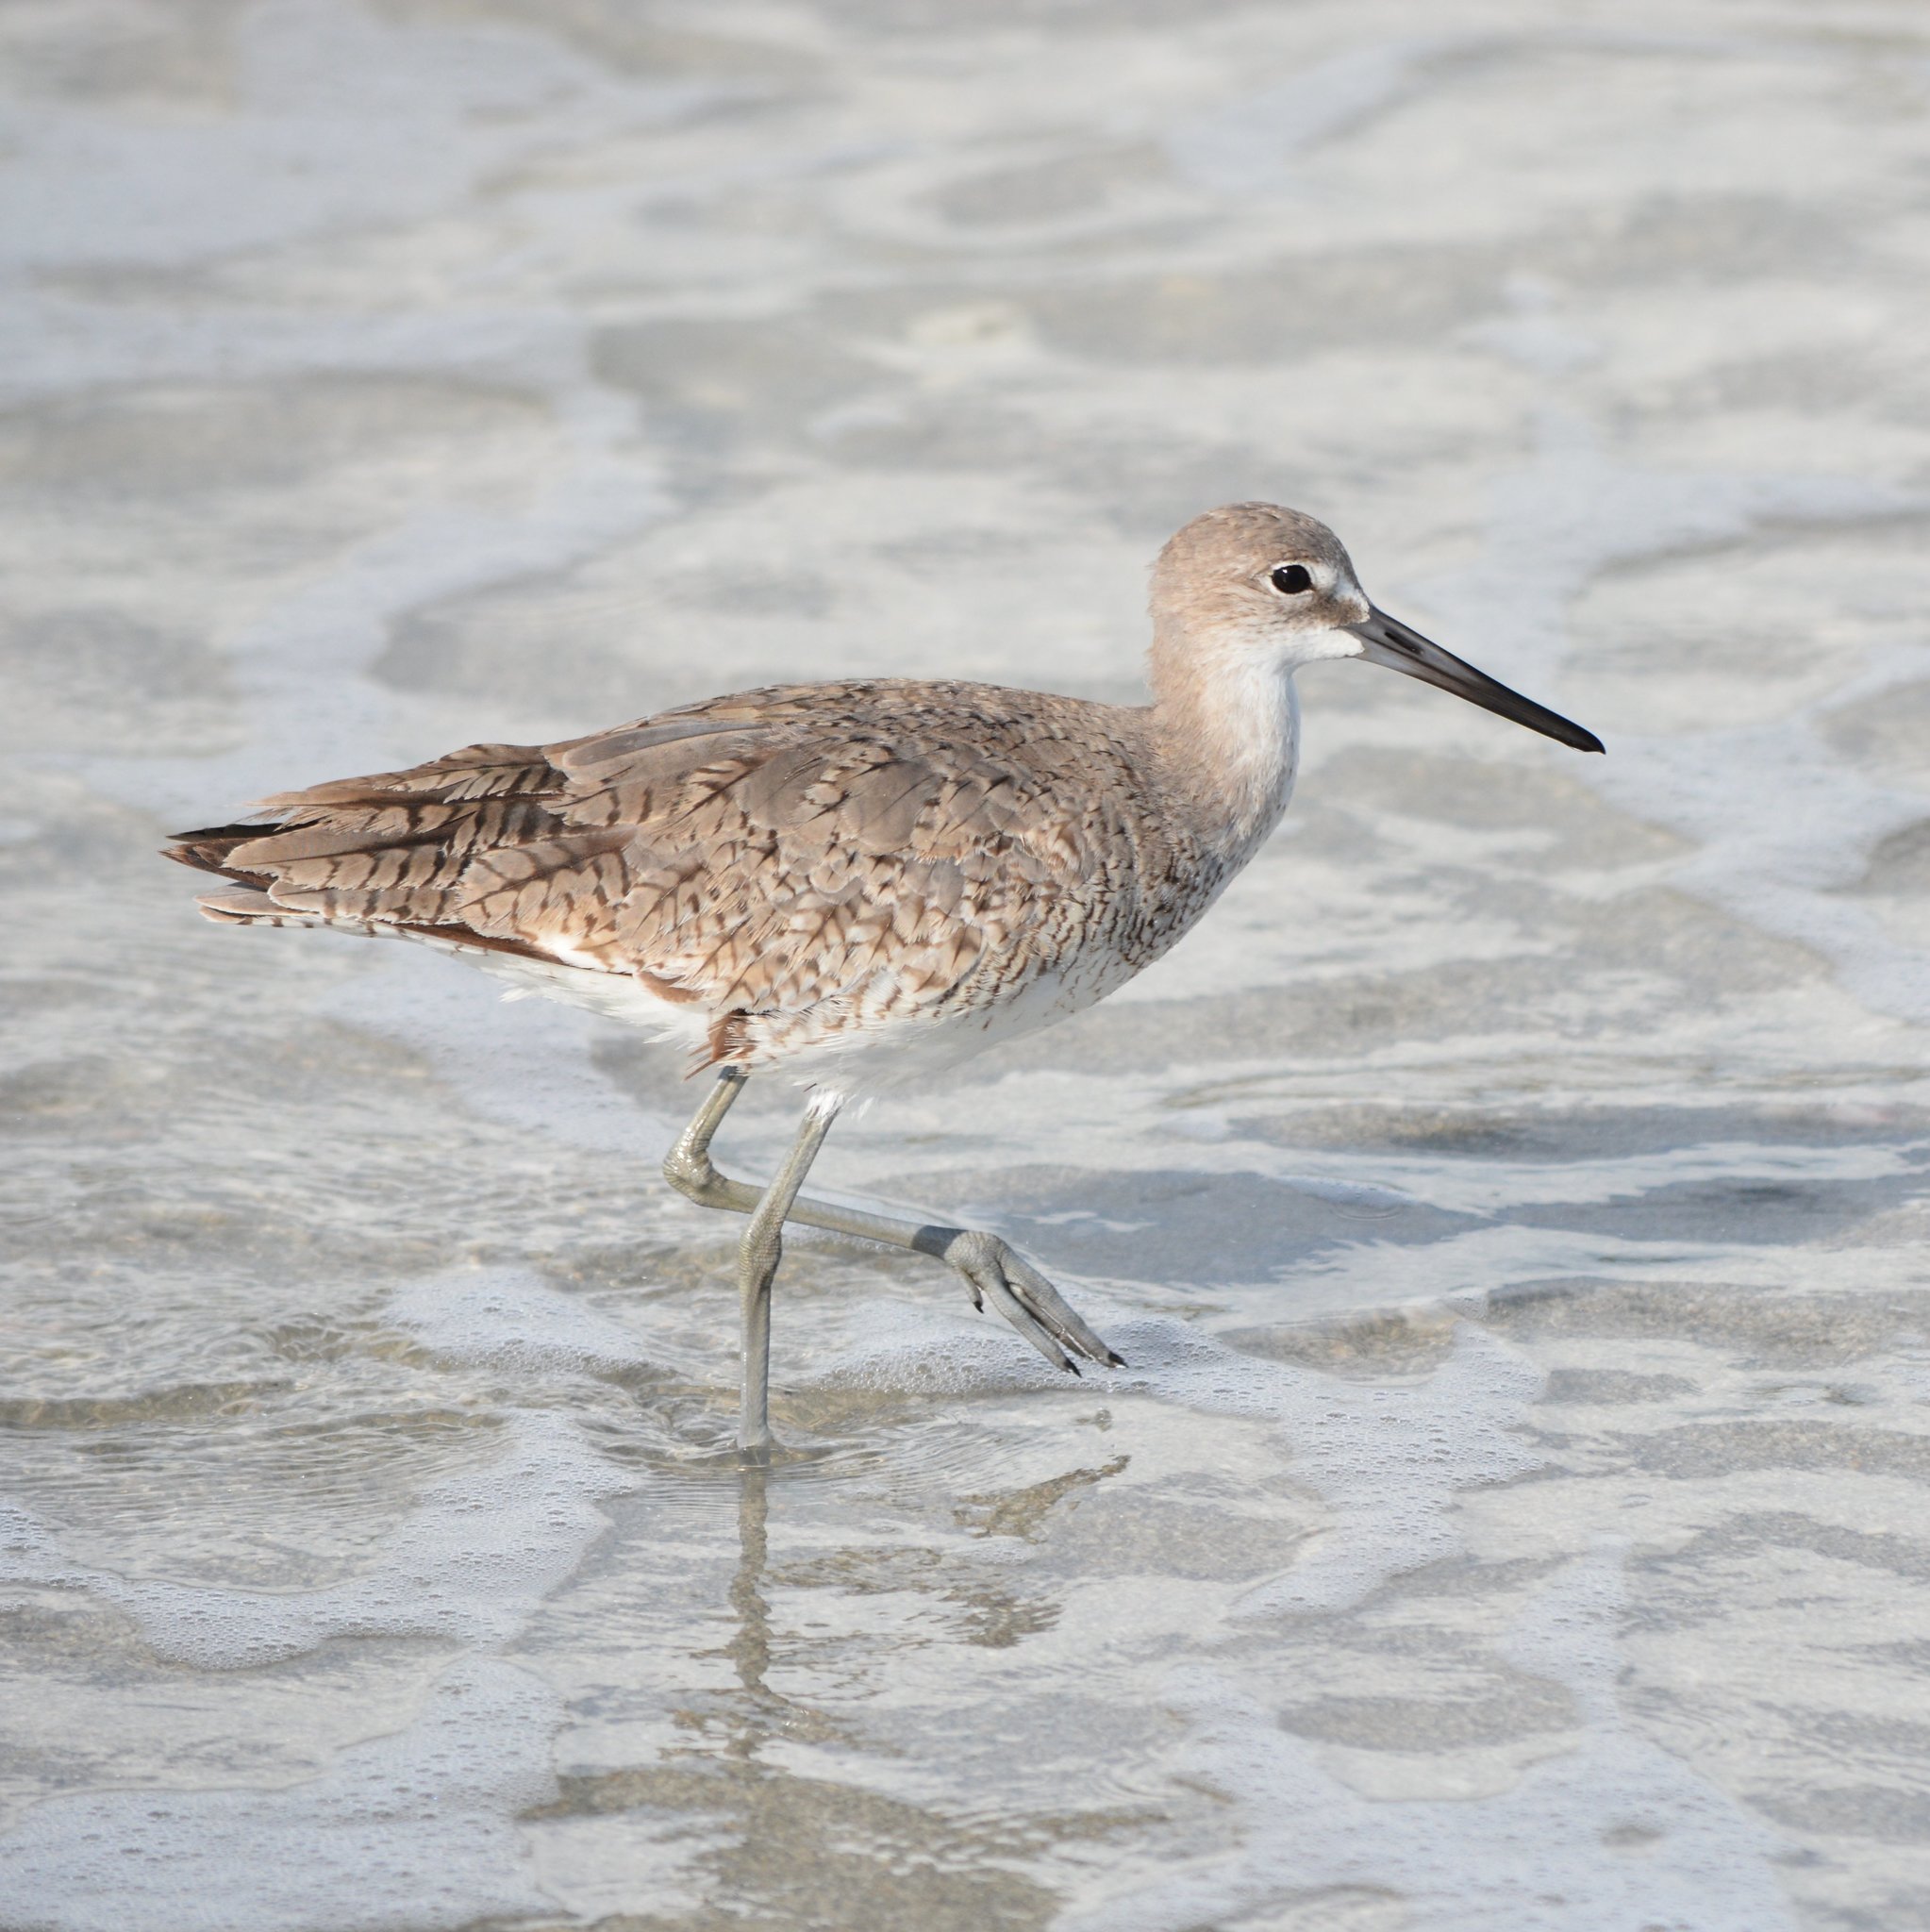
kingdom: Animalia
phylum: Chordata
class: Aves
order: Charadriiformes
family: Scolopacidae
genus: Tringa
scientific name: Tringa semipalmata
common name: Willet
